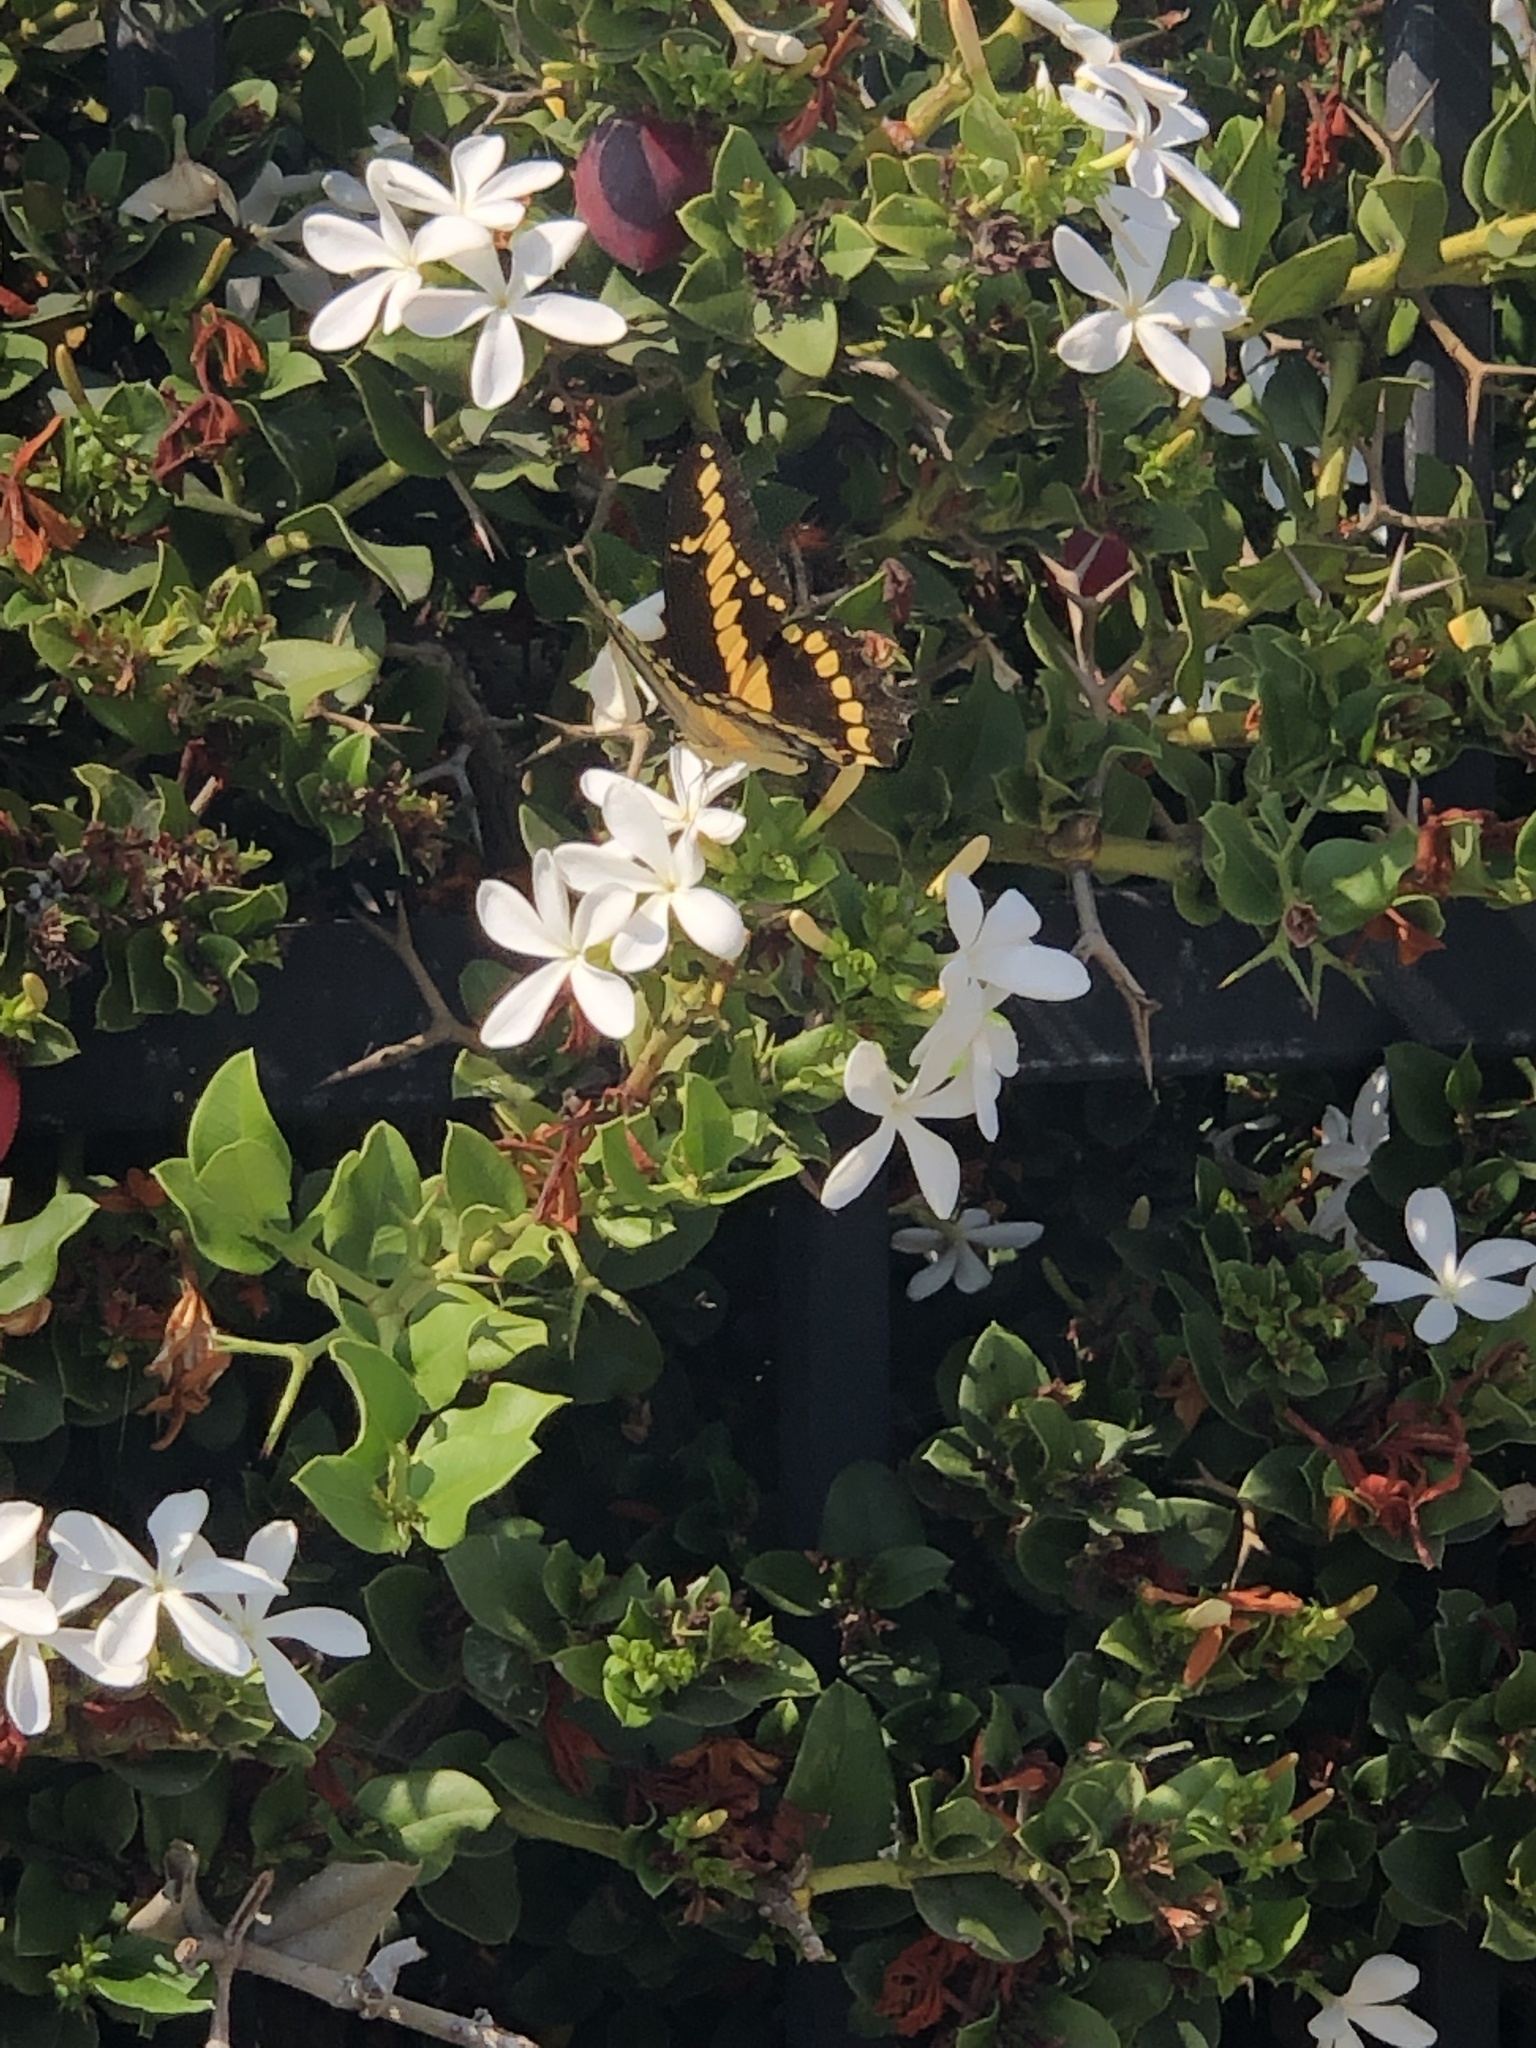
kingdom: Animalia
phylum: Arthropoda
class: Insecta
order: Lepidoptera
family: Papilionidae
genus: Papilio
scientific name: Papilio rumiko
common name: Western giant swallowtail
